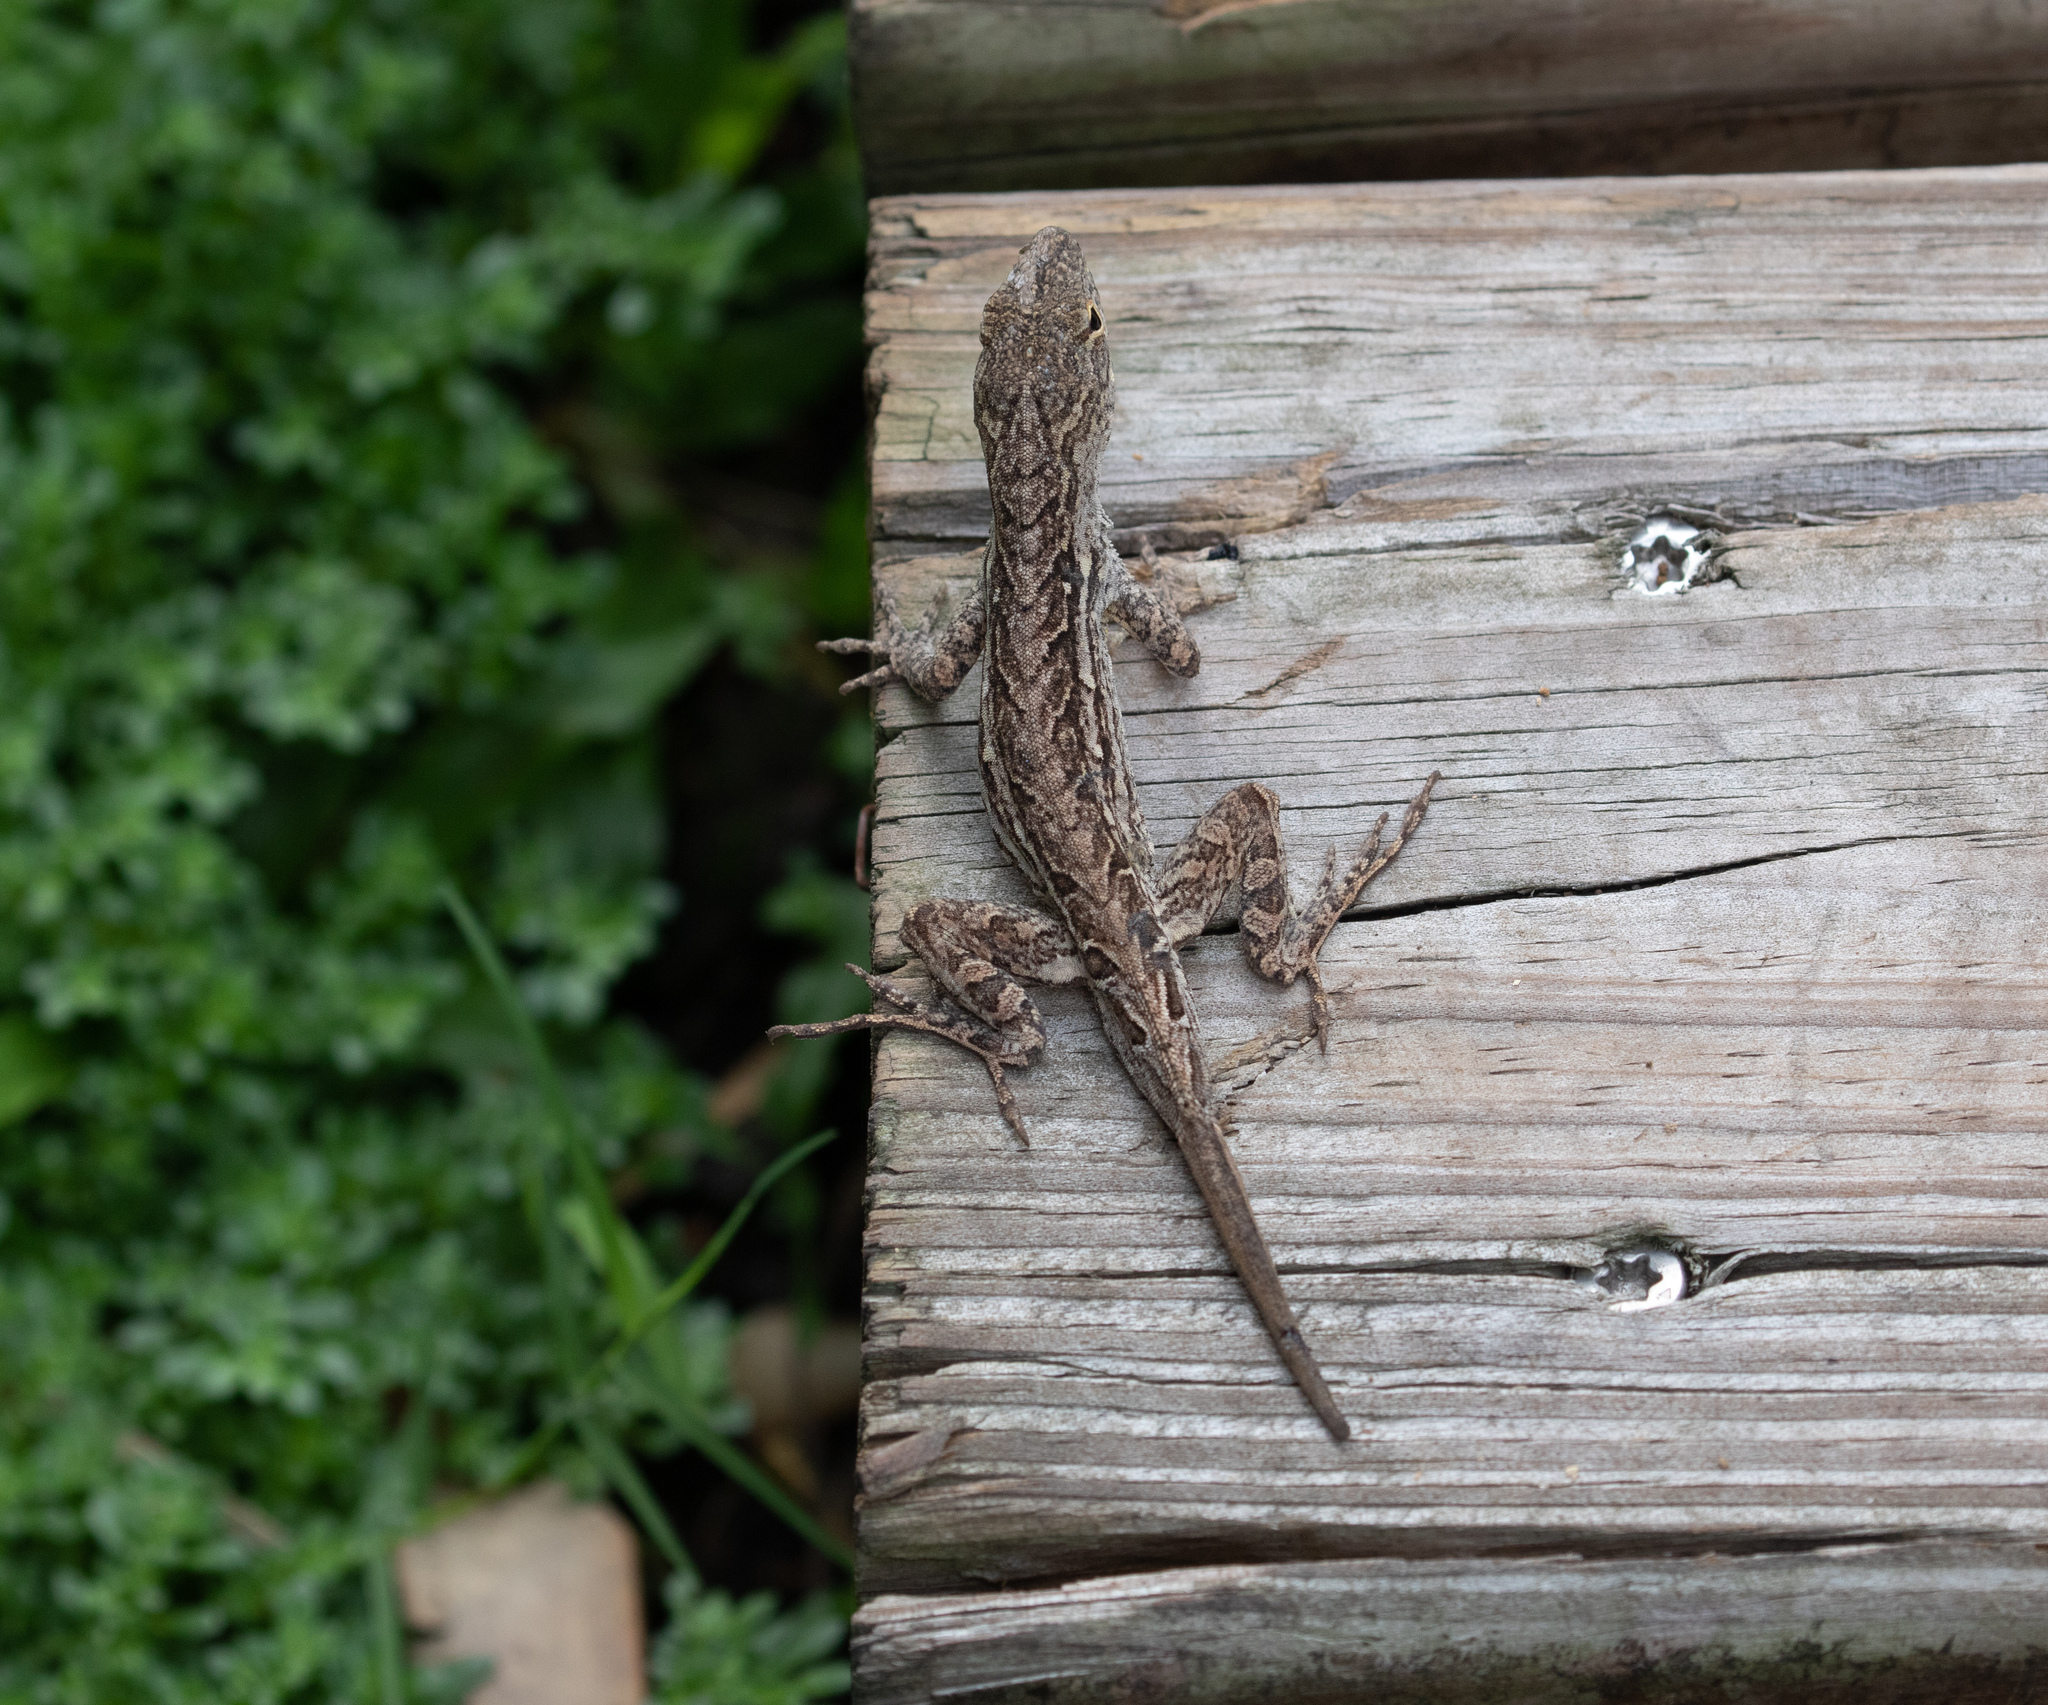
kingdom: Animalia
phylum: Chordata
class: Squamata
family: Dactyloidae
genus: Anolis
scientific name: Anolis sagrei
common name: Brown anole
